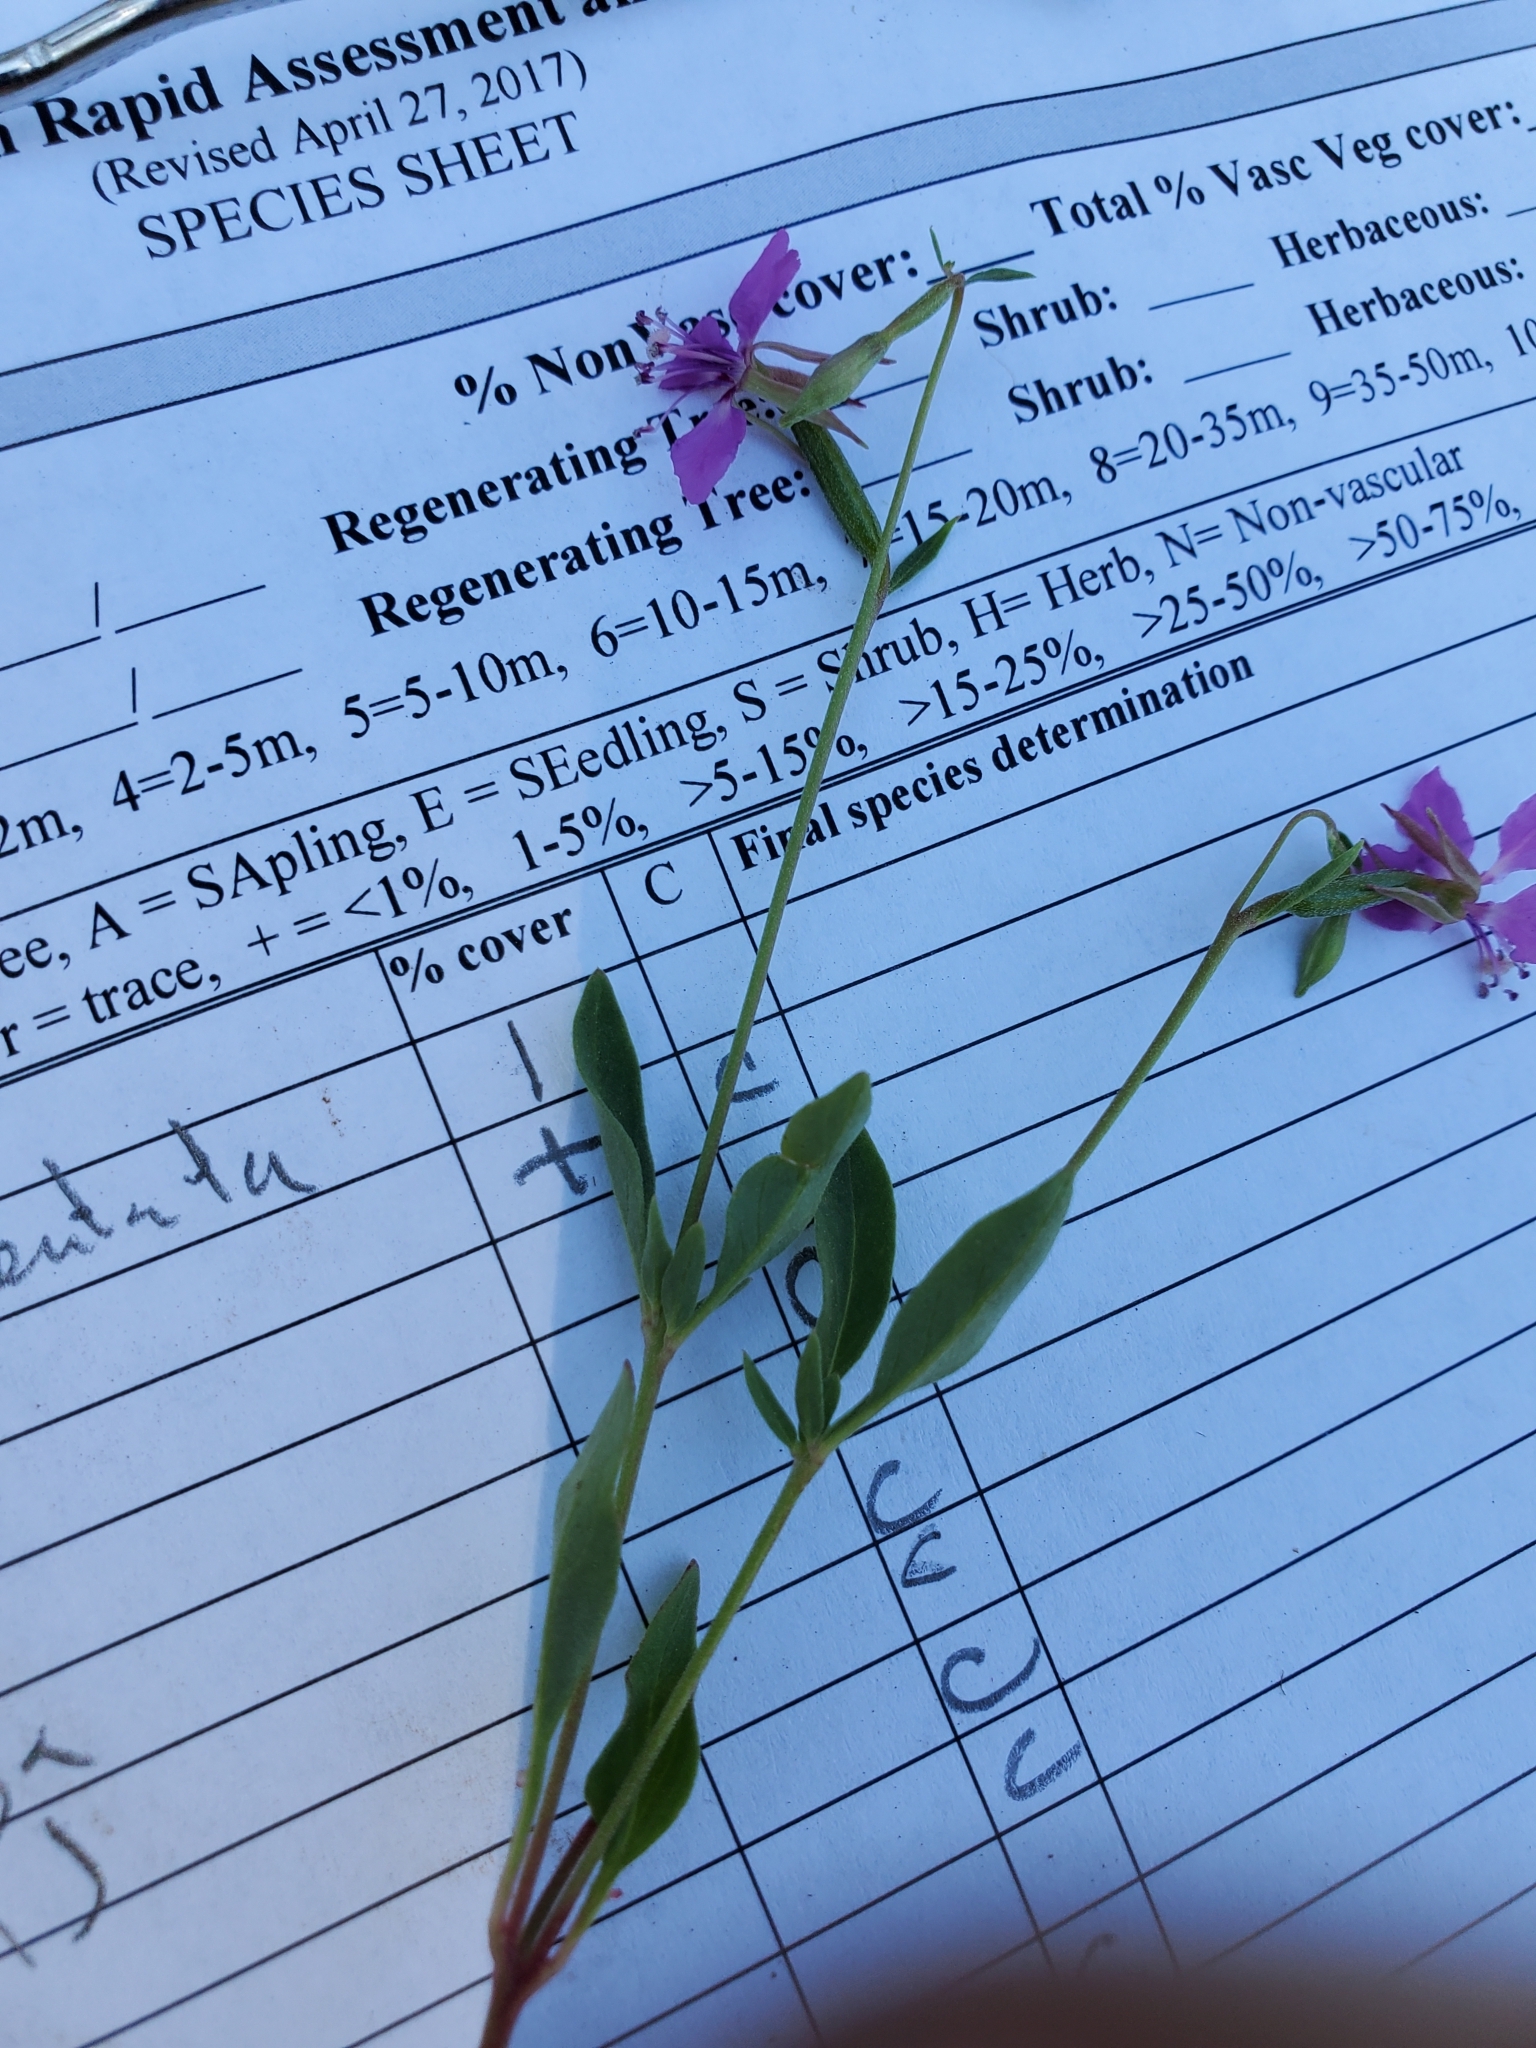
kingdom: Plantae
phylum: Tracheophyta
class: Magnoliopsida
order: Myrtales
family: Onagraceae
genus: Clarkia
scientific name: Clarkia rhomboidea
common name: Broadleaf clarkia
